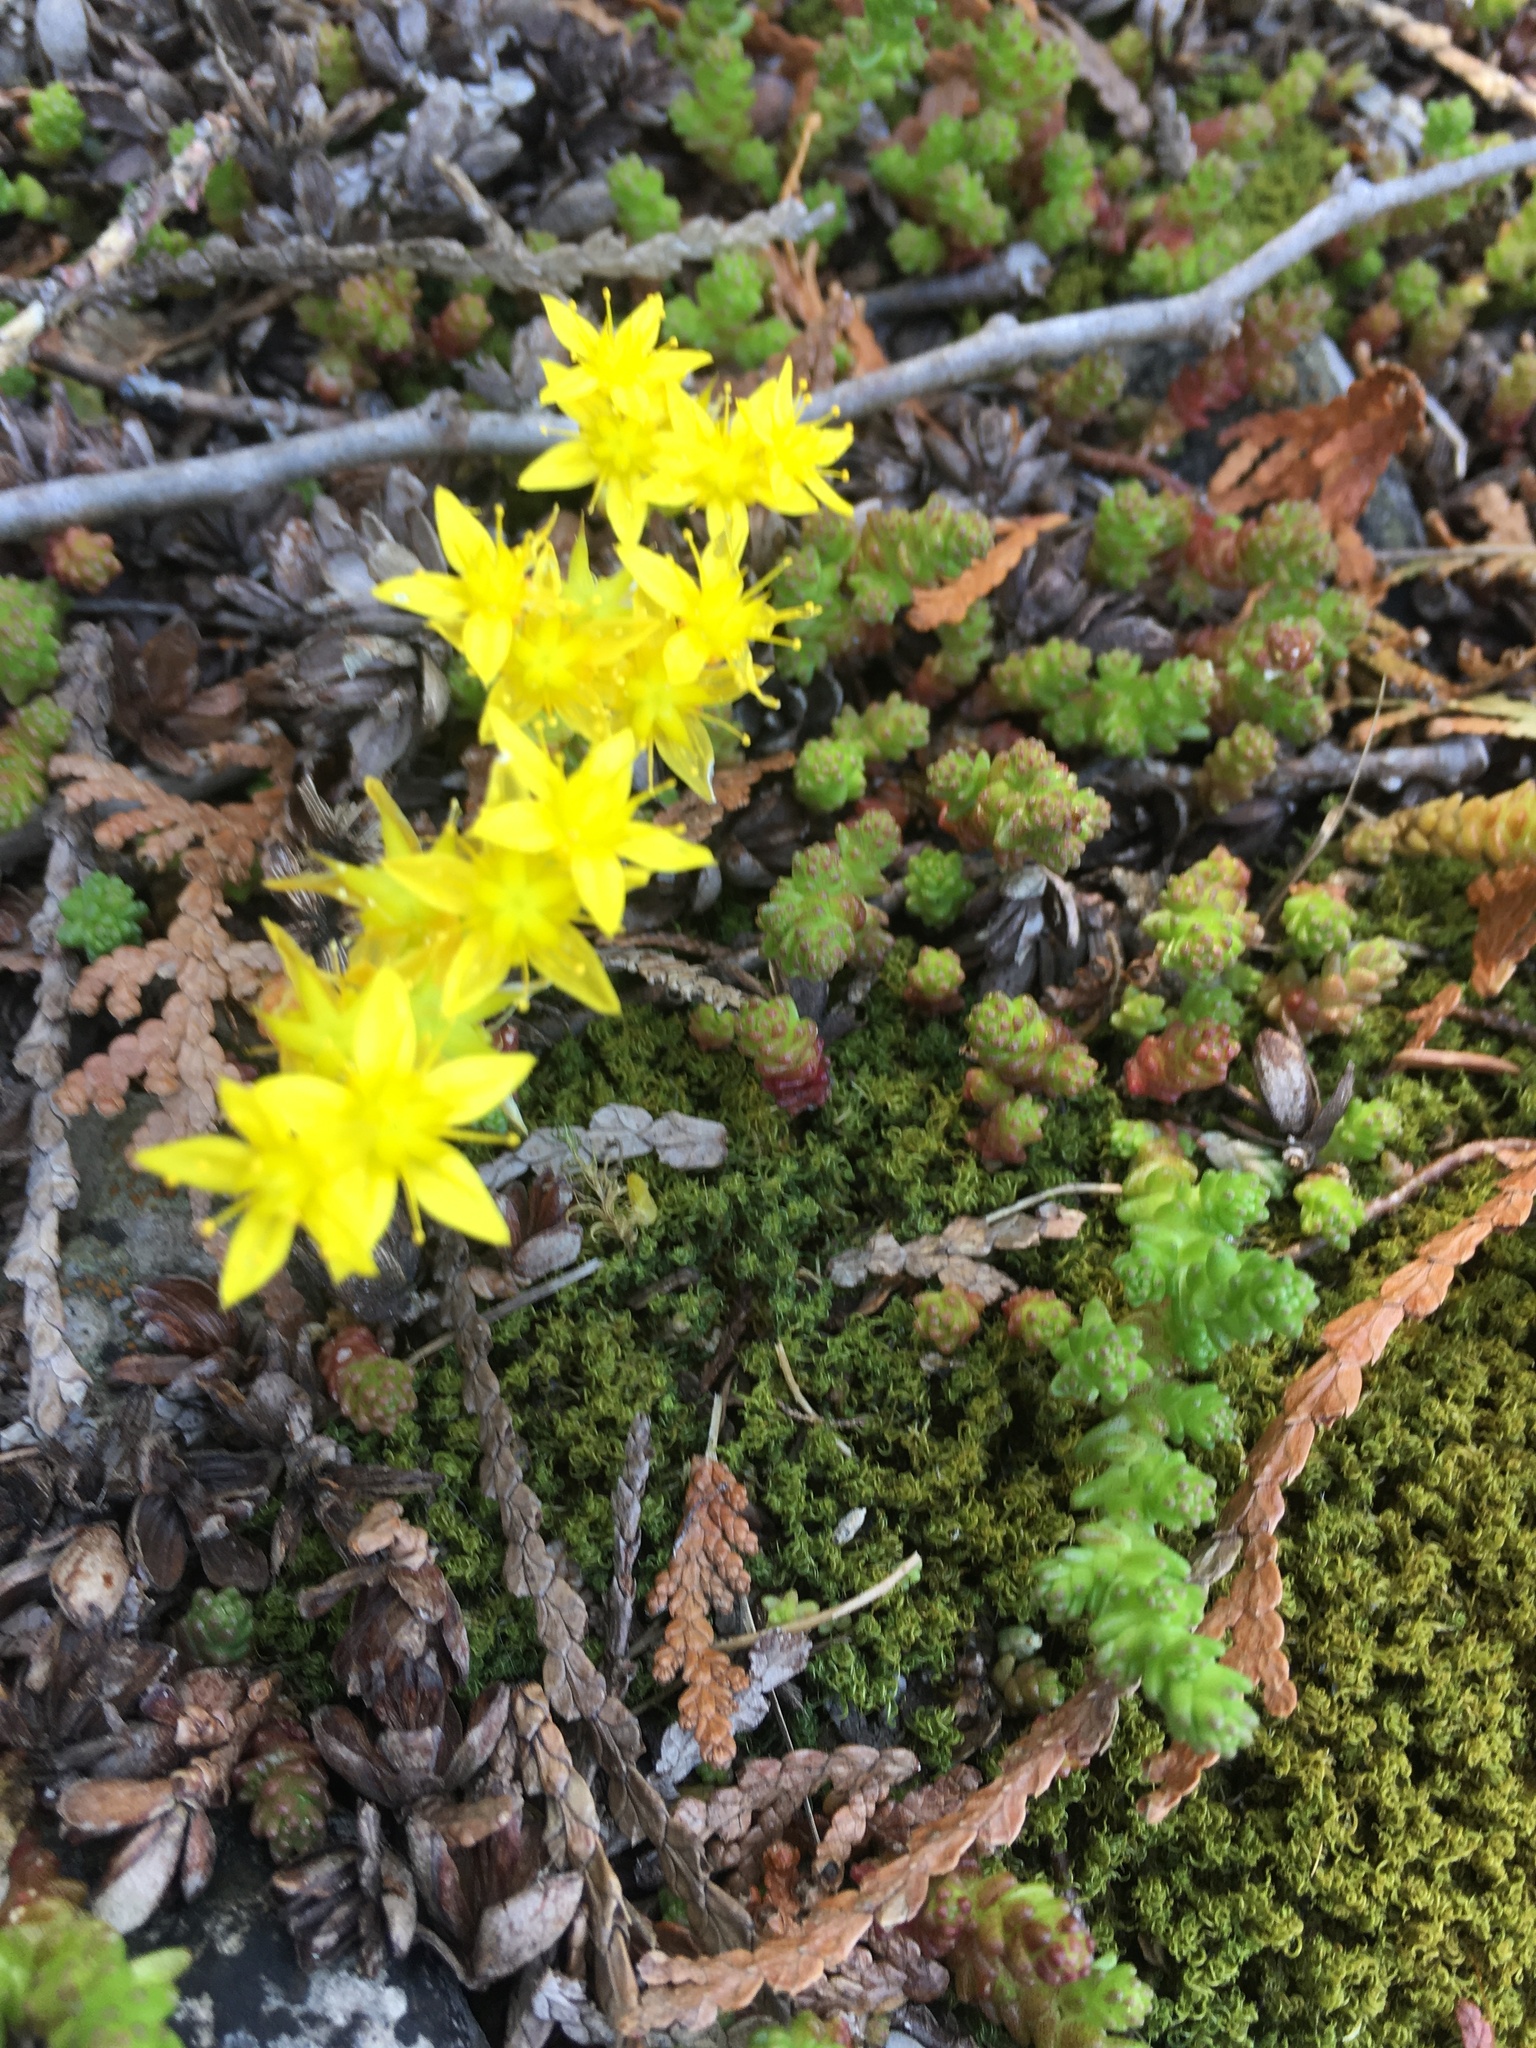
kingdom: Plantae
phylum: Tracheophyta
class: Magnoliopsida
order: Saxifragales
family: Crassulaceae
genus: Sedum
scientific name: Sedum acre
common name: Biting stonecrop
